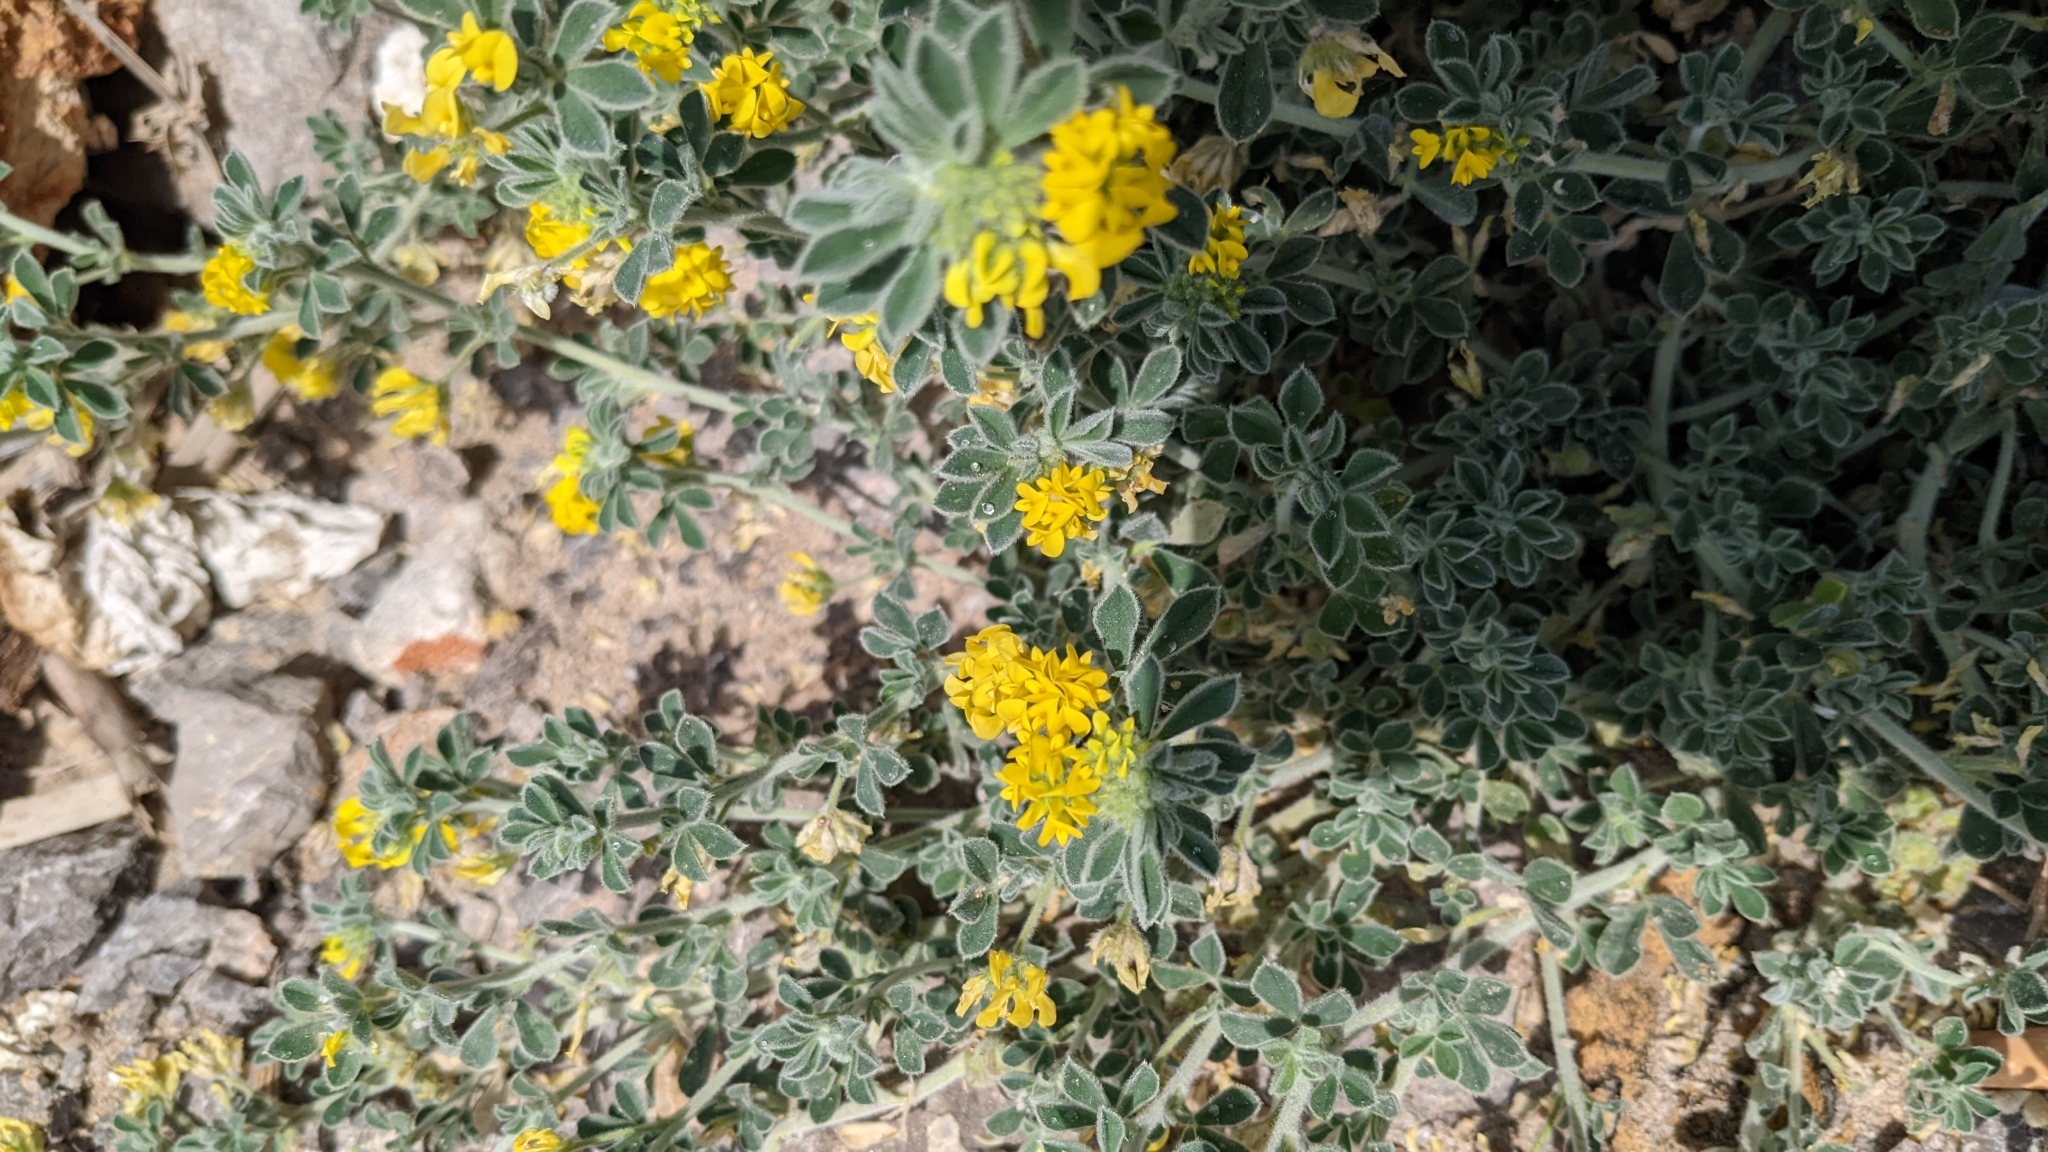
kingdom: Plantae
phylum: Tracheophyta
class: Magnoliopsida
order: Fabales
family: Fabaceae
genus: Medicago
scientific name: Medicago marina
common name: Sea medick
